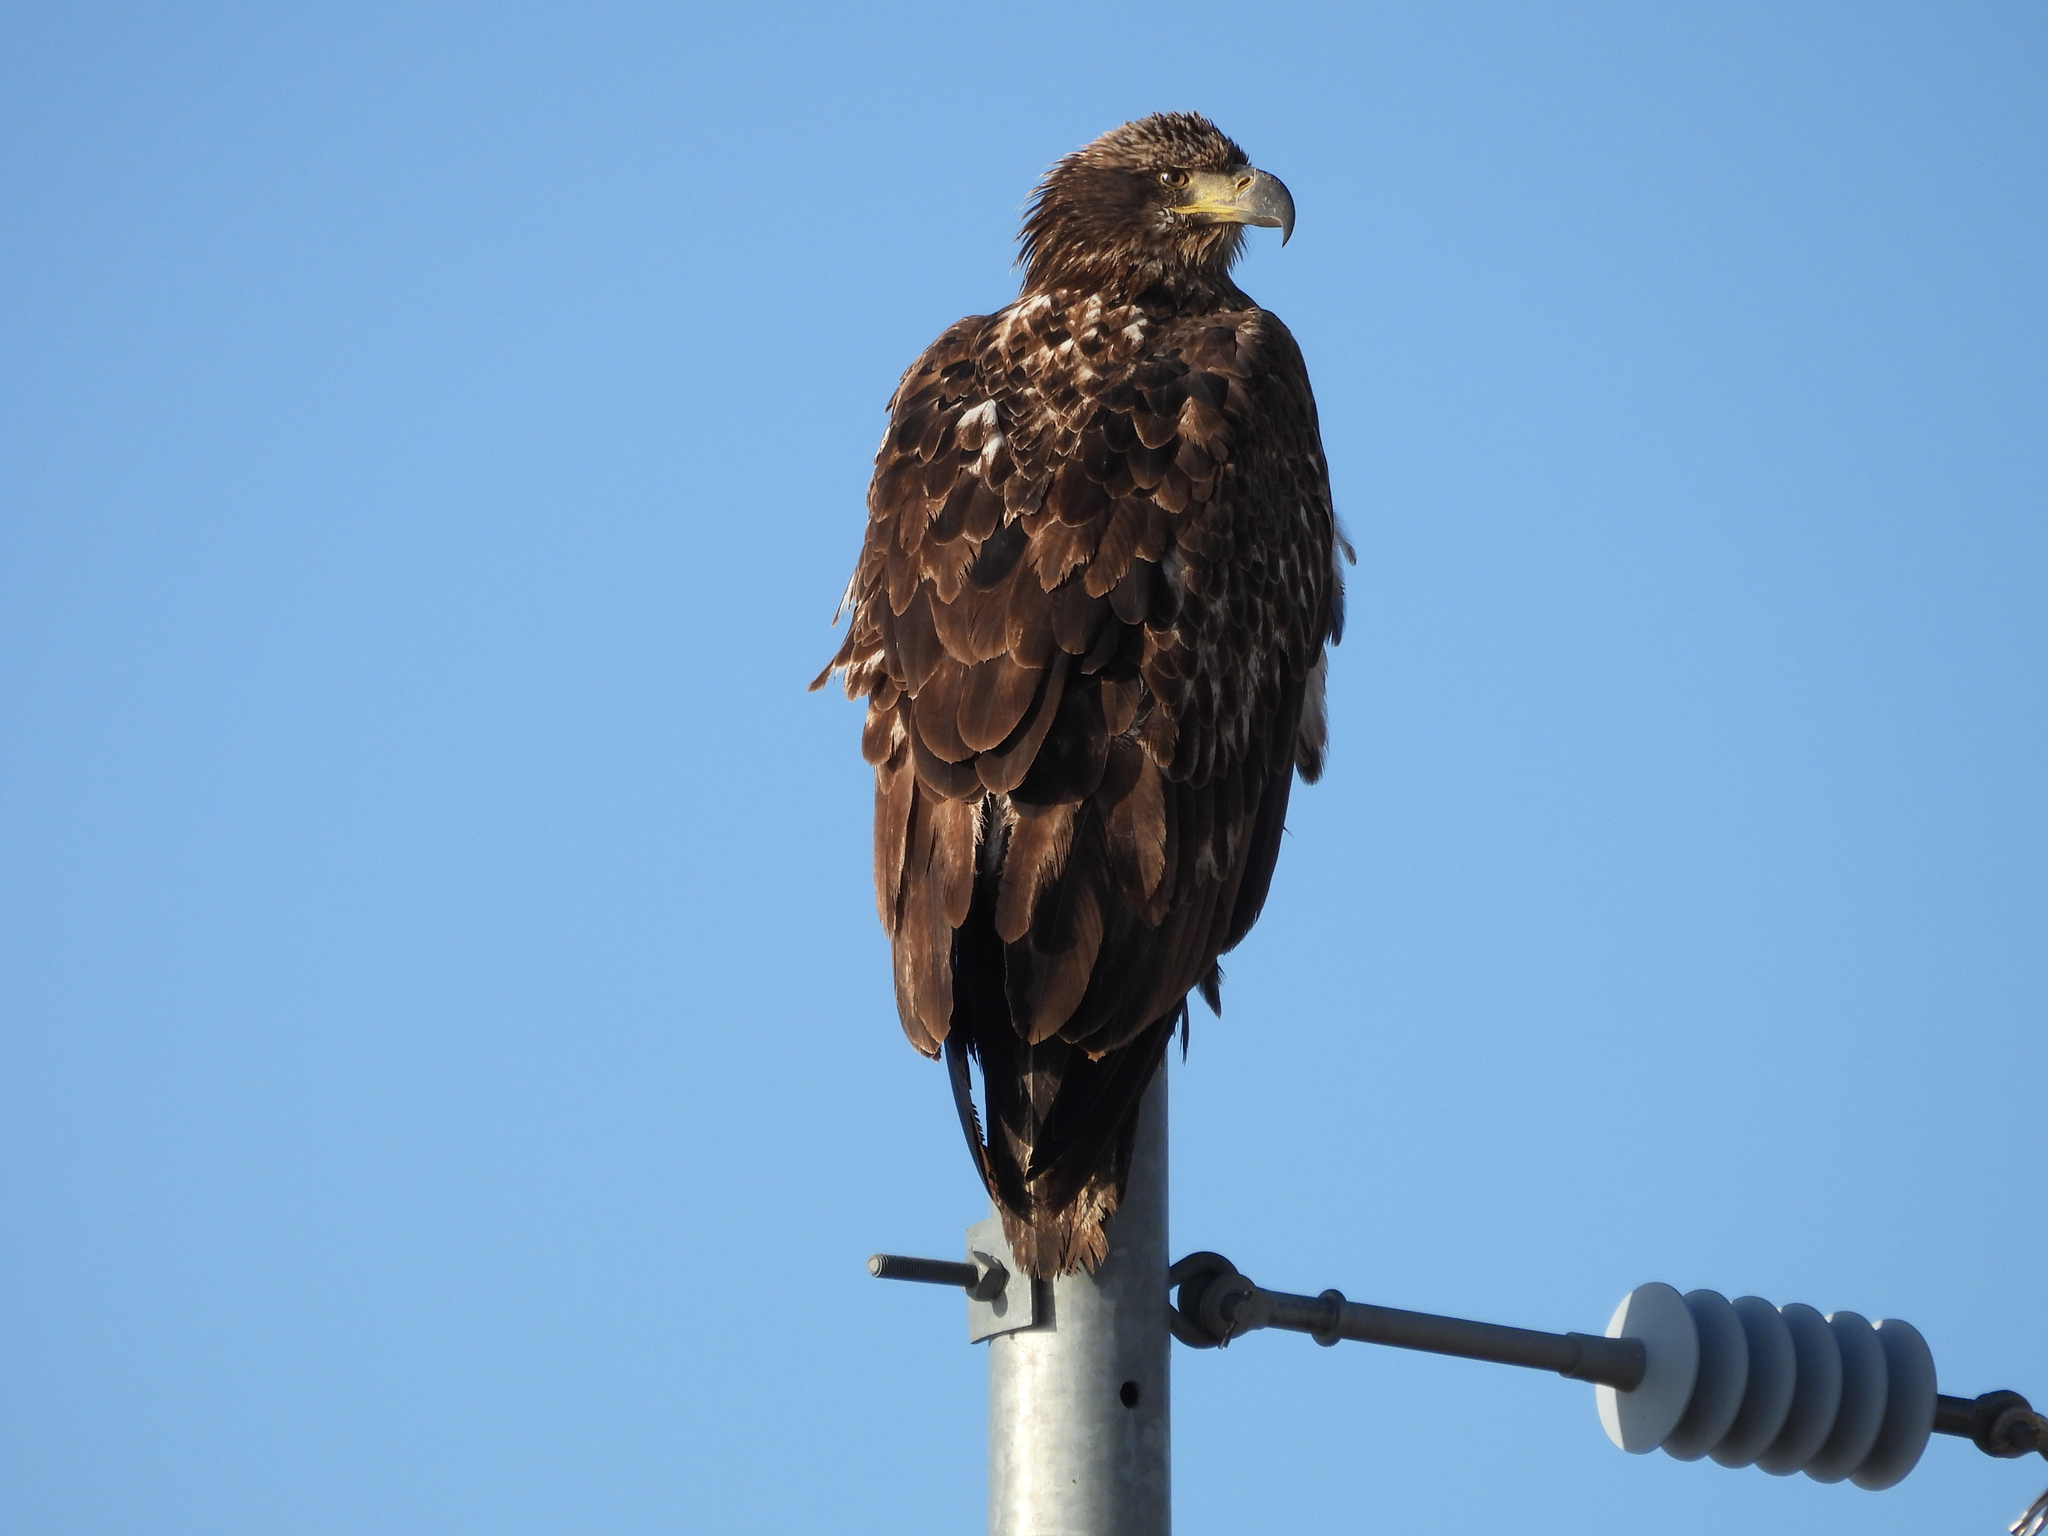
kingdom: Animalia
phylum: Chordata
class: Aves
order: Accipitriformes
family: Accipitridae
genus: Haliaeetus
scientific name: Haliaeetus leucocephalus
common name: Bald eagle
